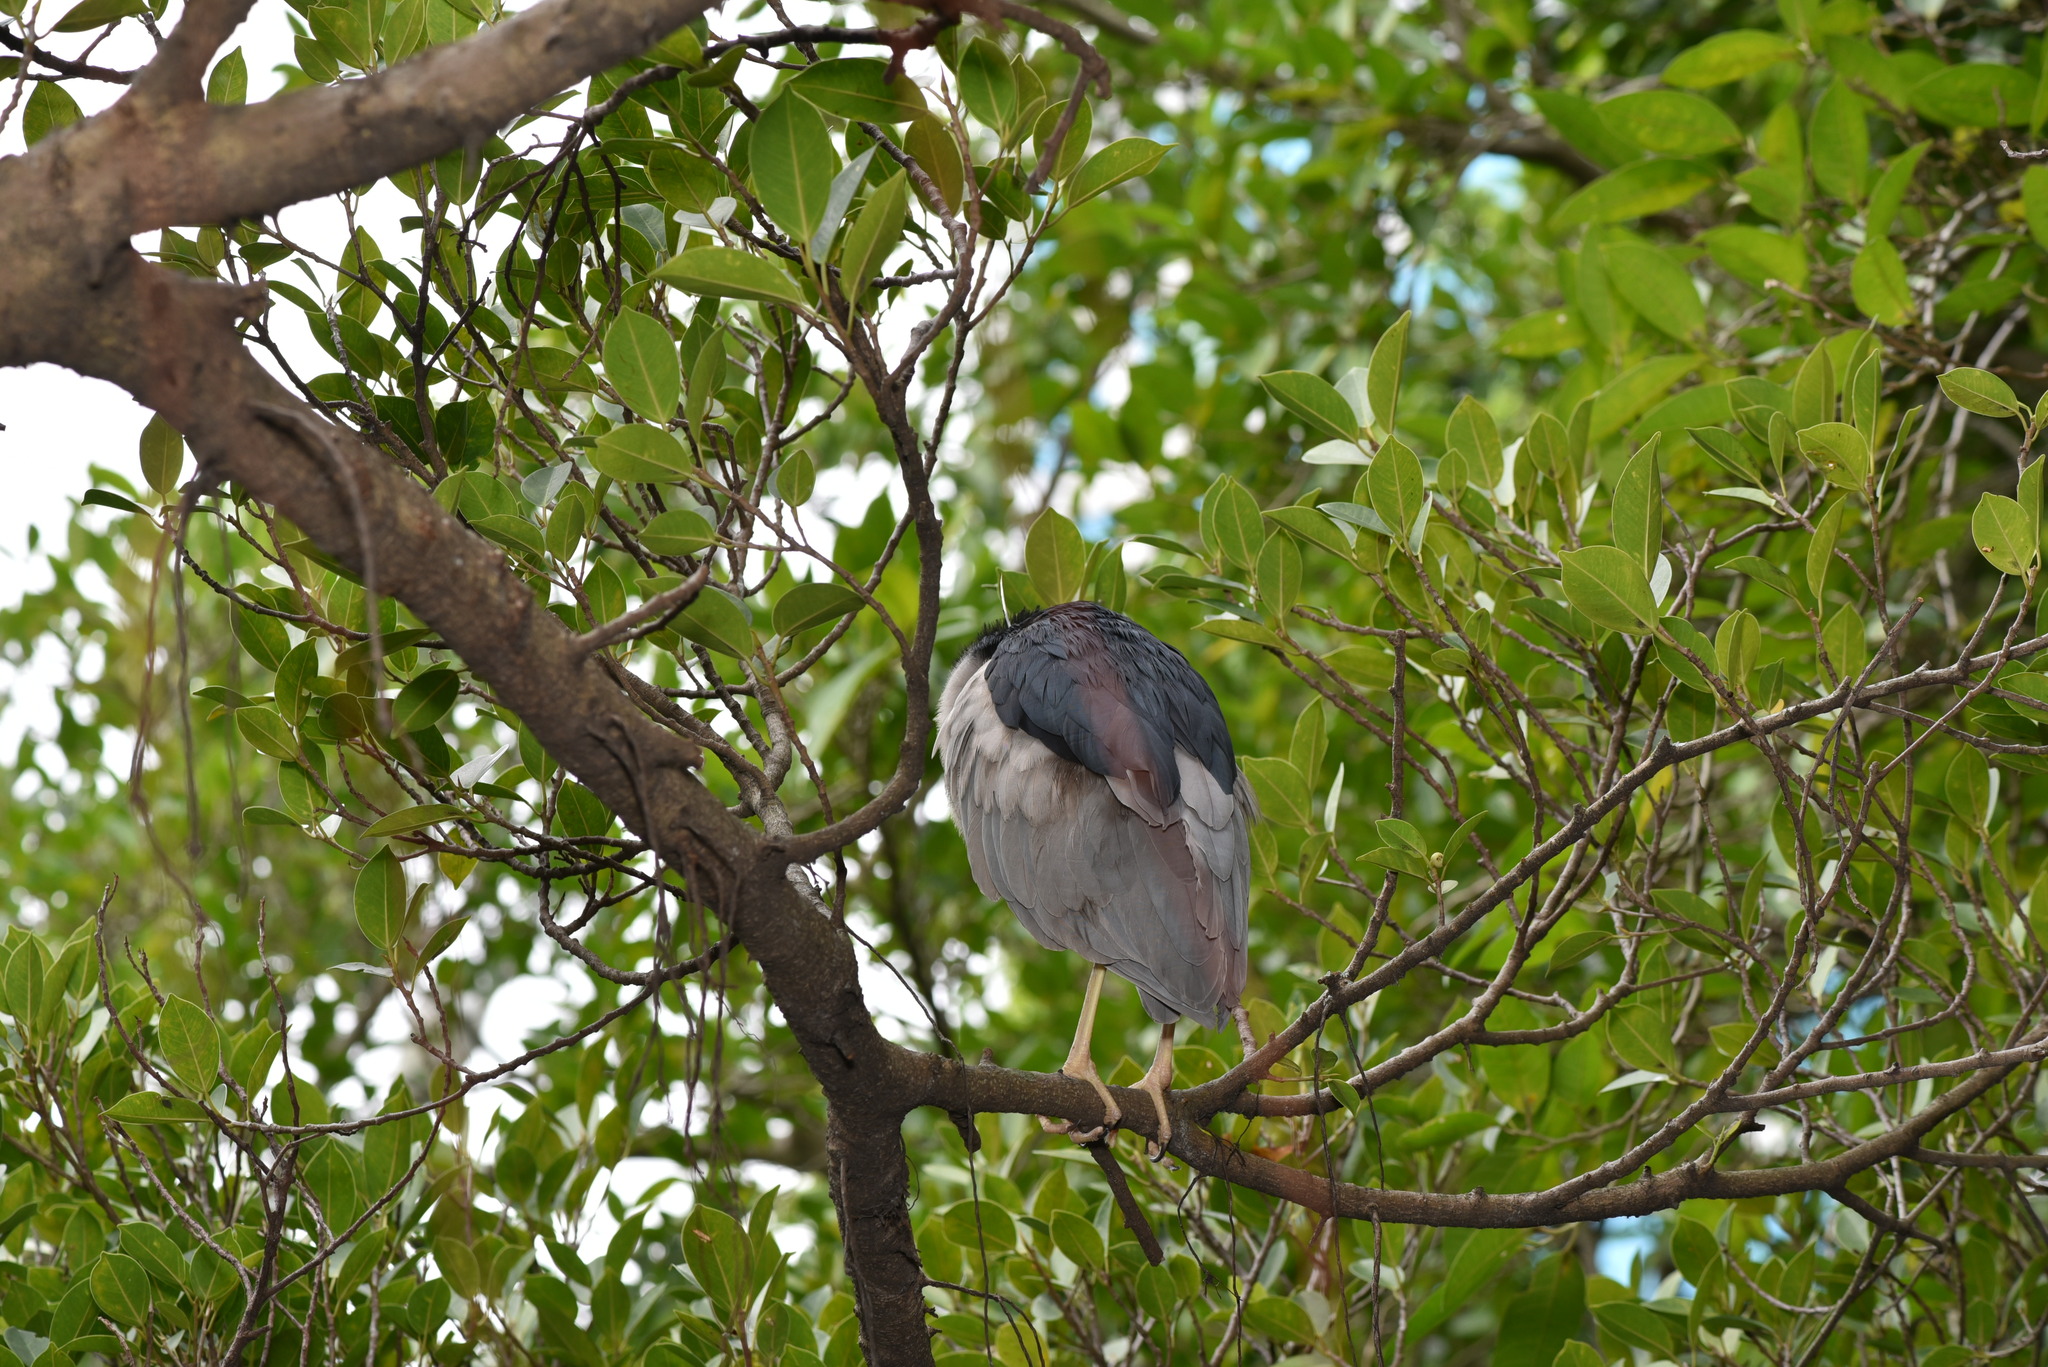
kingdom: Animalia
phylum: Chordata
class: Aves
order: Pelecaniformes
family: Ardeidae
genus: Nycticorax
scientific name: Nycticorax nycticorax
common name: Black-crowned night heron
